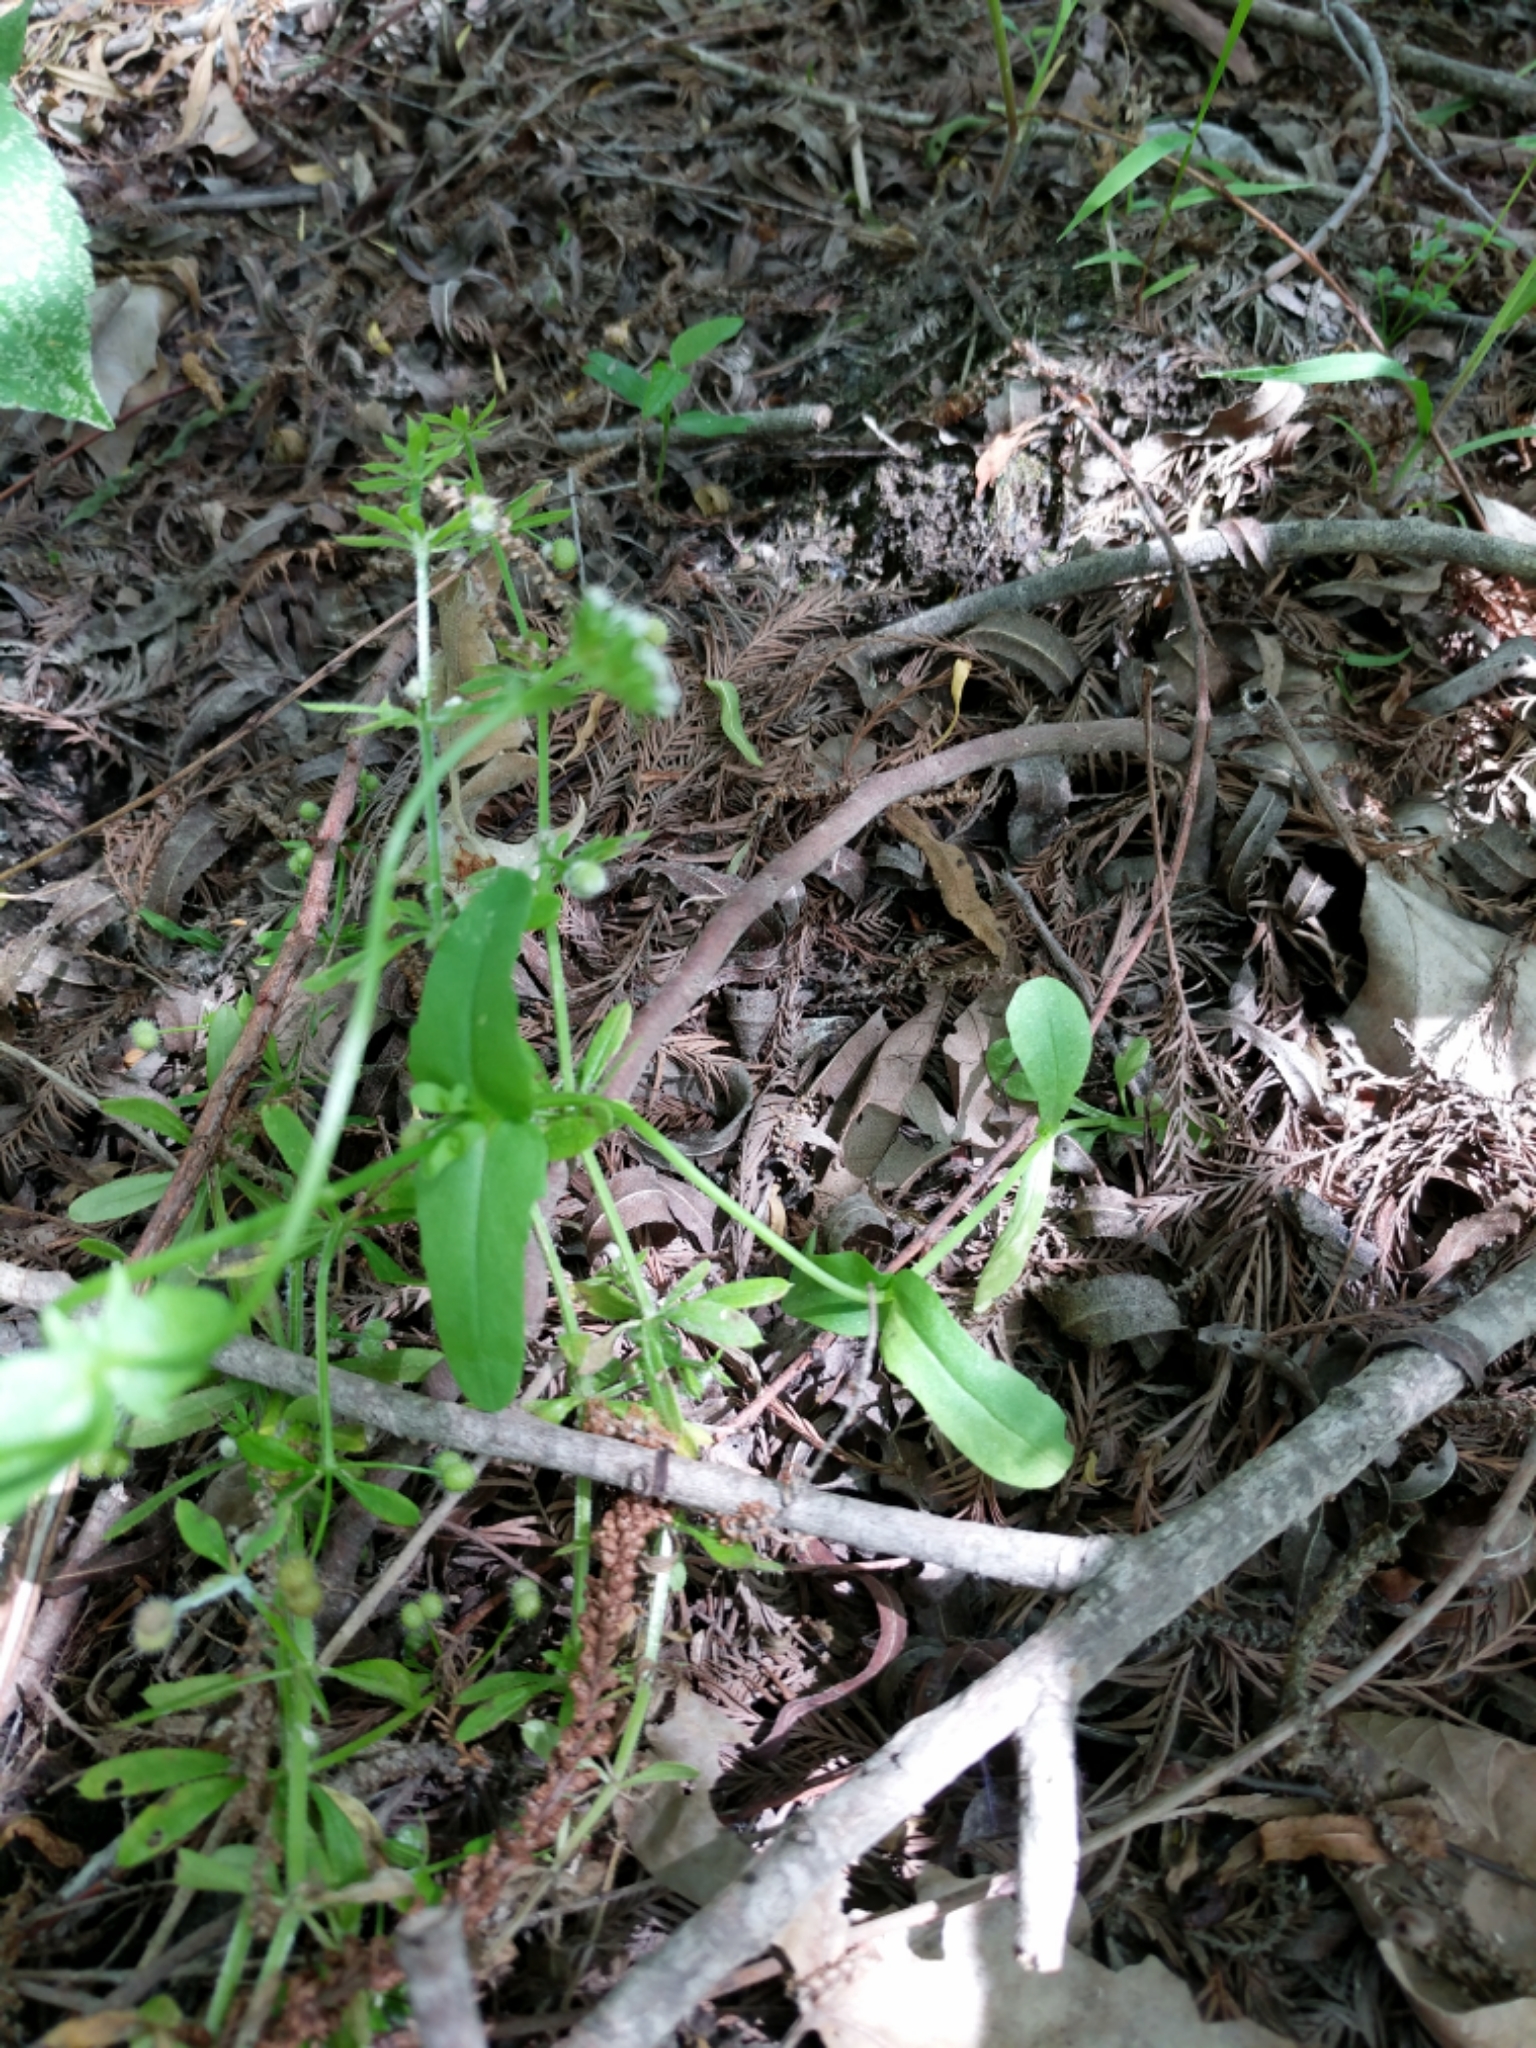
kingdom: Plantae
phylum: Tracheophyta
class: Magnoliopsida
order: Dipsacales
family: Caprifoliaceae
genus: Valerianella
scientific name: Valerianella radiata
